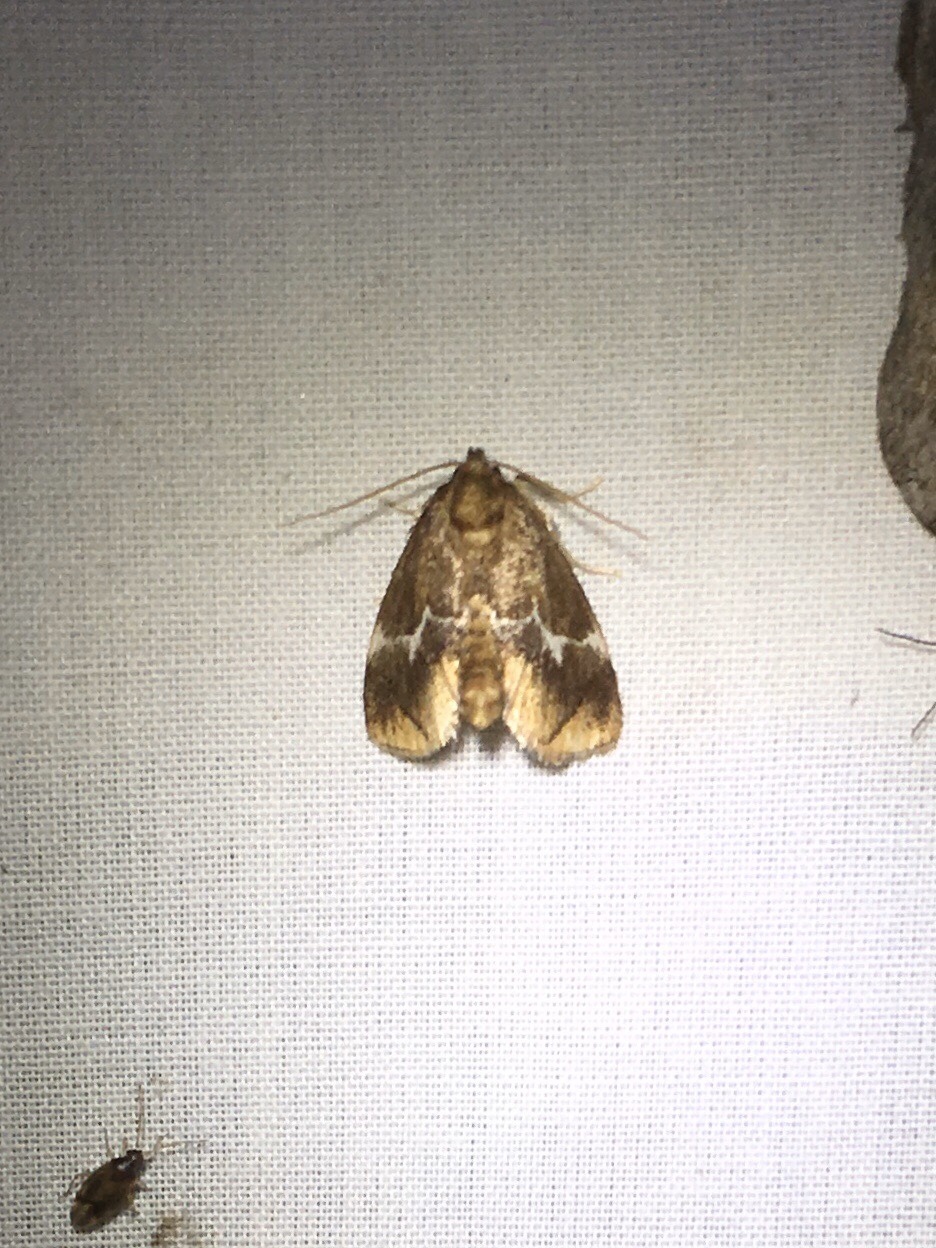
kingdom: Animalia
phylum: Arthropoda
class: Insecta
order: Lepidoptera
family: Limacodidae
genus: Lithacodes
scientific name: Lithacodes fasciola
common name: Yellow-shouldered slug moth
